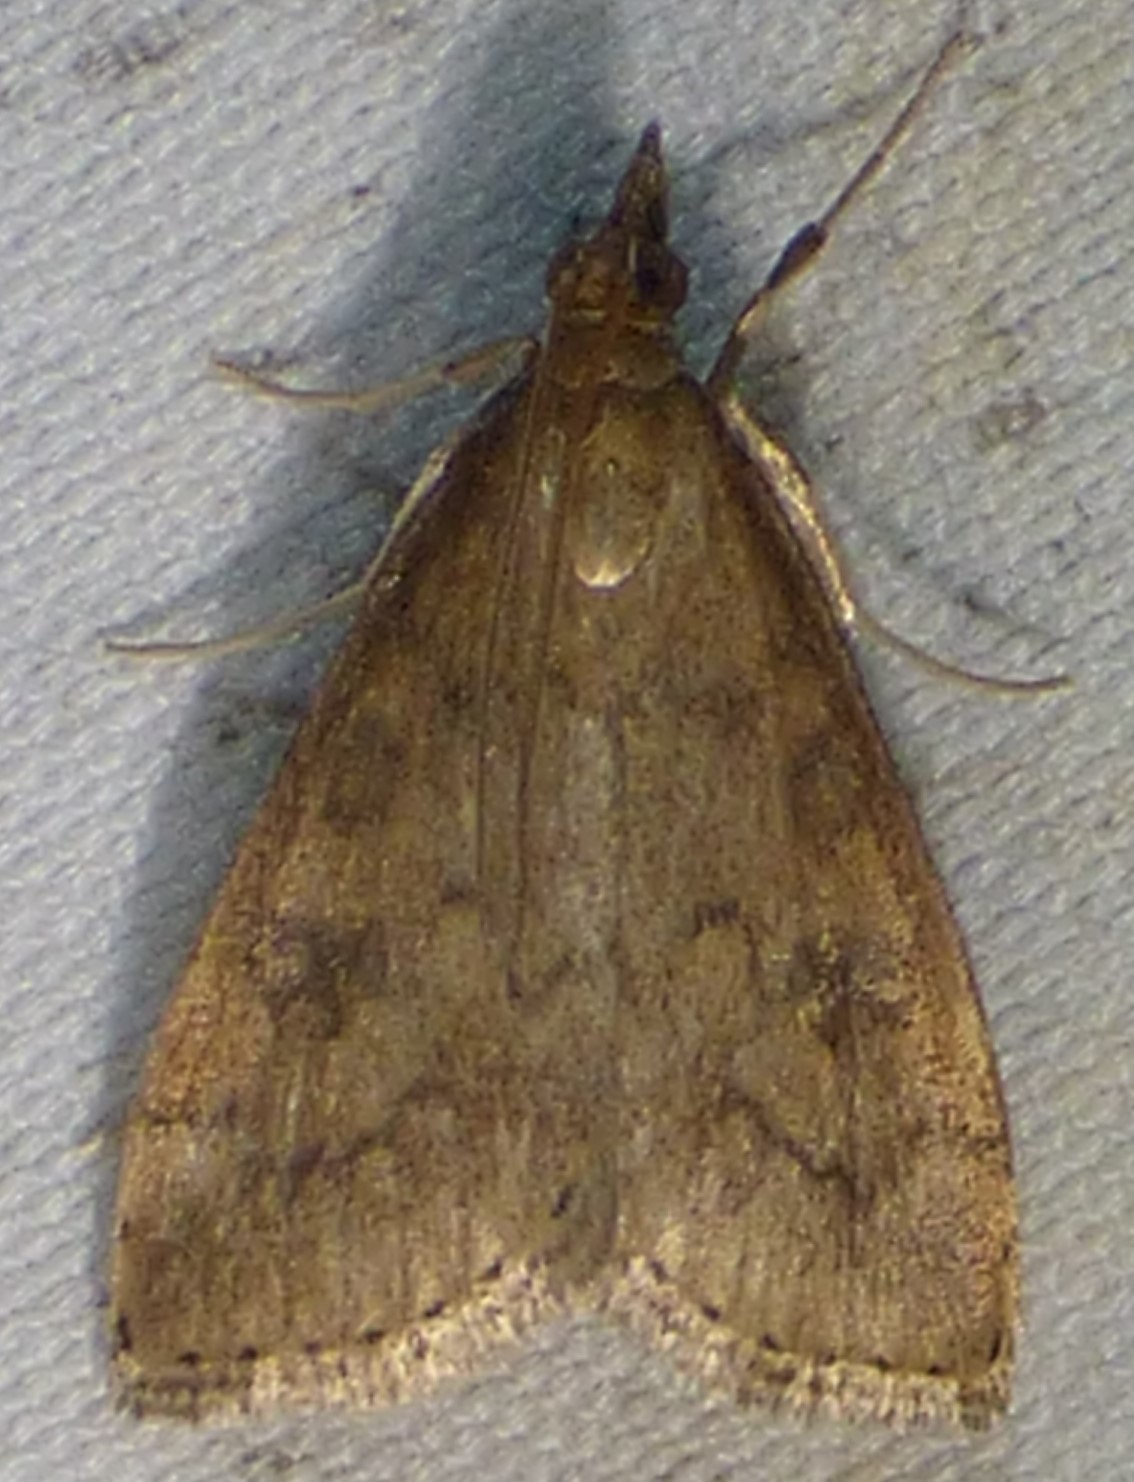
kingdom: Animalia
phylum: Arthropoda
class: Insecta
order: Lepidoptera
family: Crambidae
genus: Udea
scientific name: Udea rubigalis
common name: Celery leaftier moth
